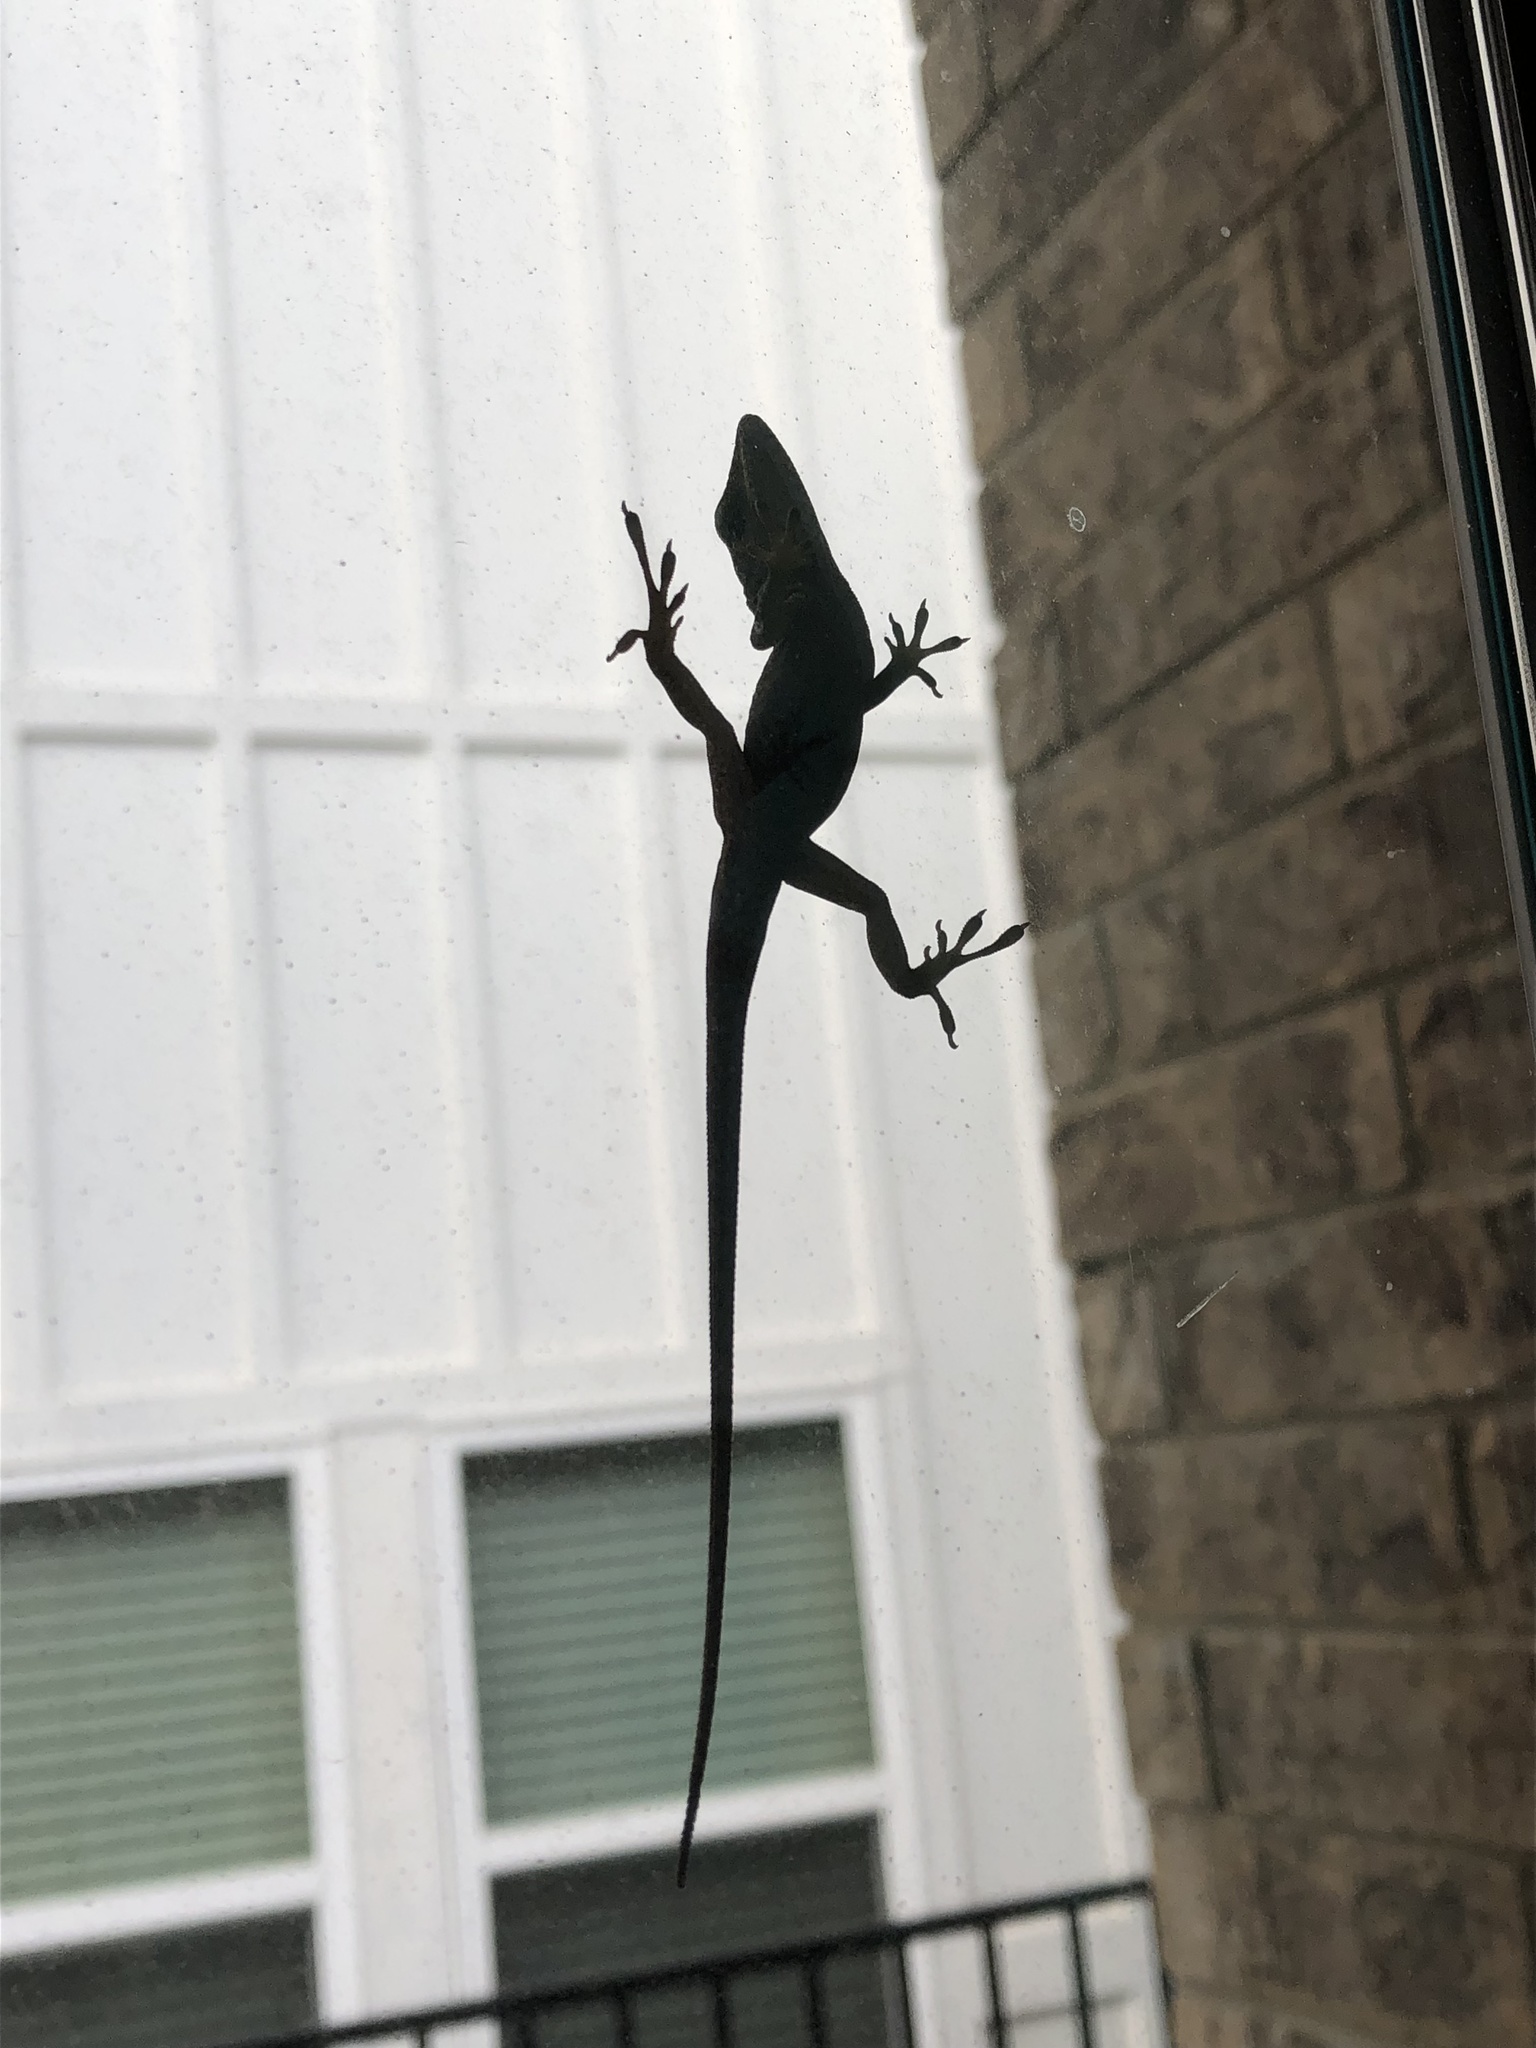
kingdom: Animalia
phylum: Chordata
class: Squamata
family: Dactyloidae
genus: Anolis
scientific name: Anolis carolinensis
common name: Green anole
